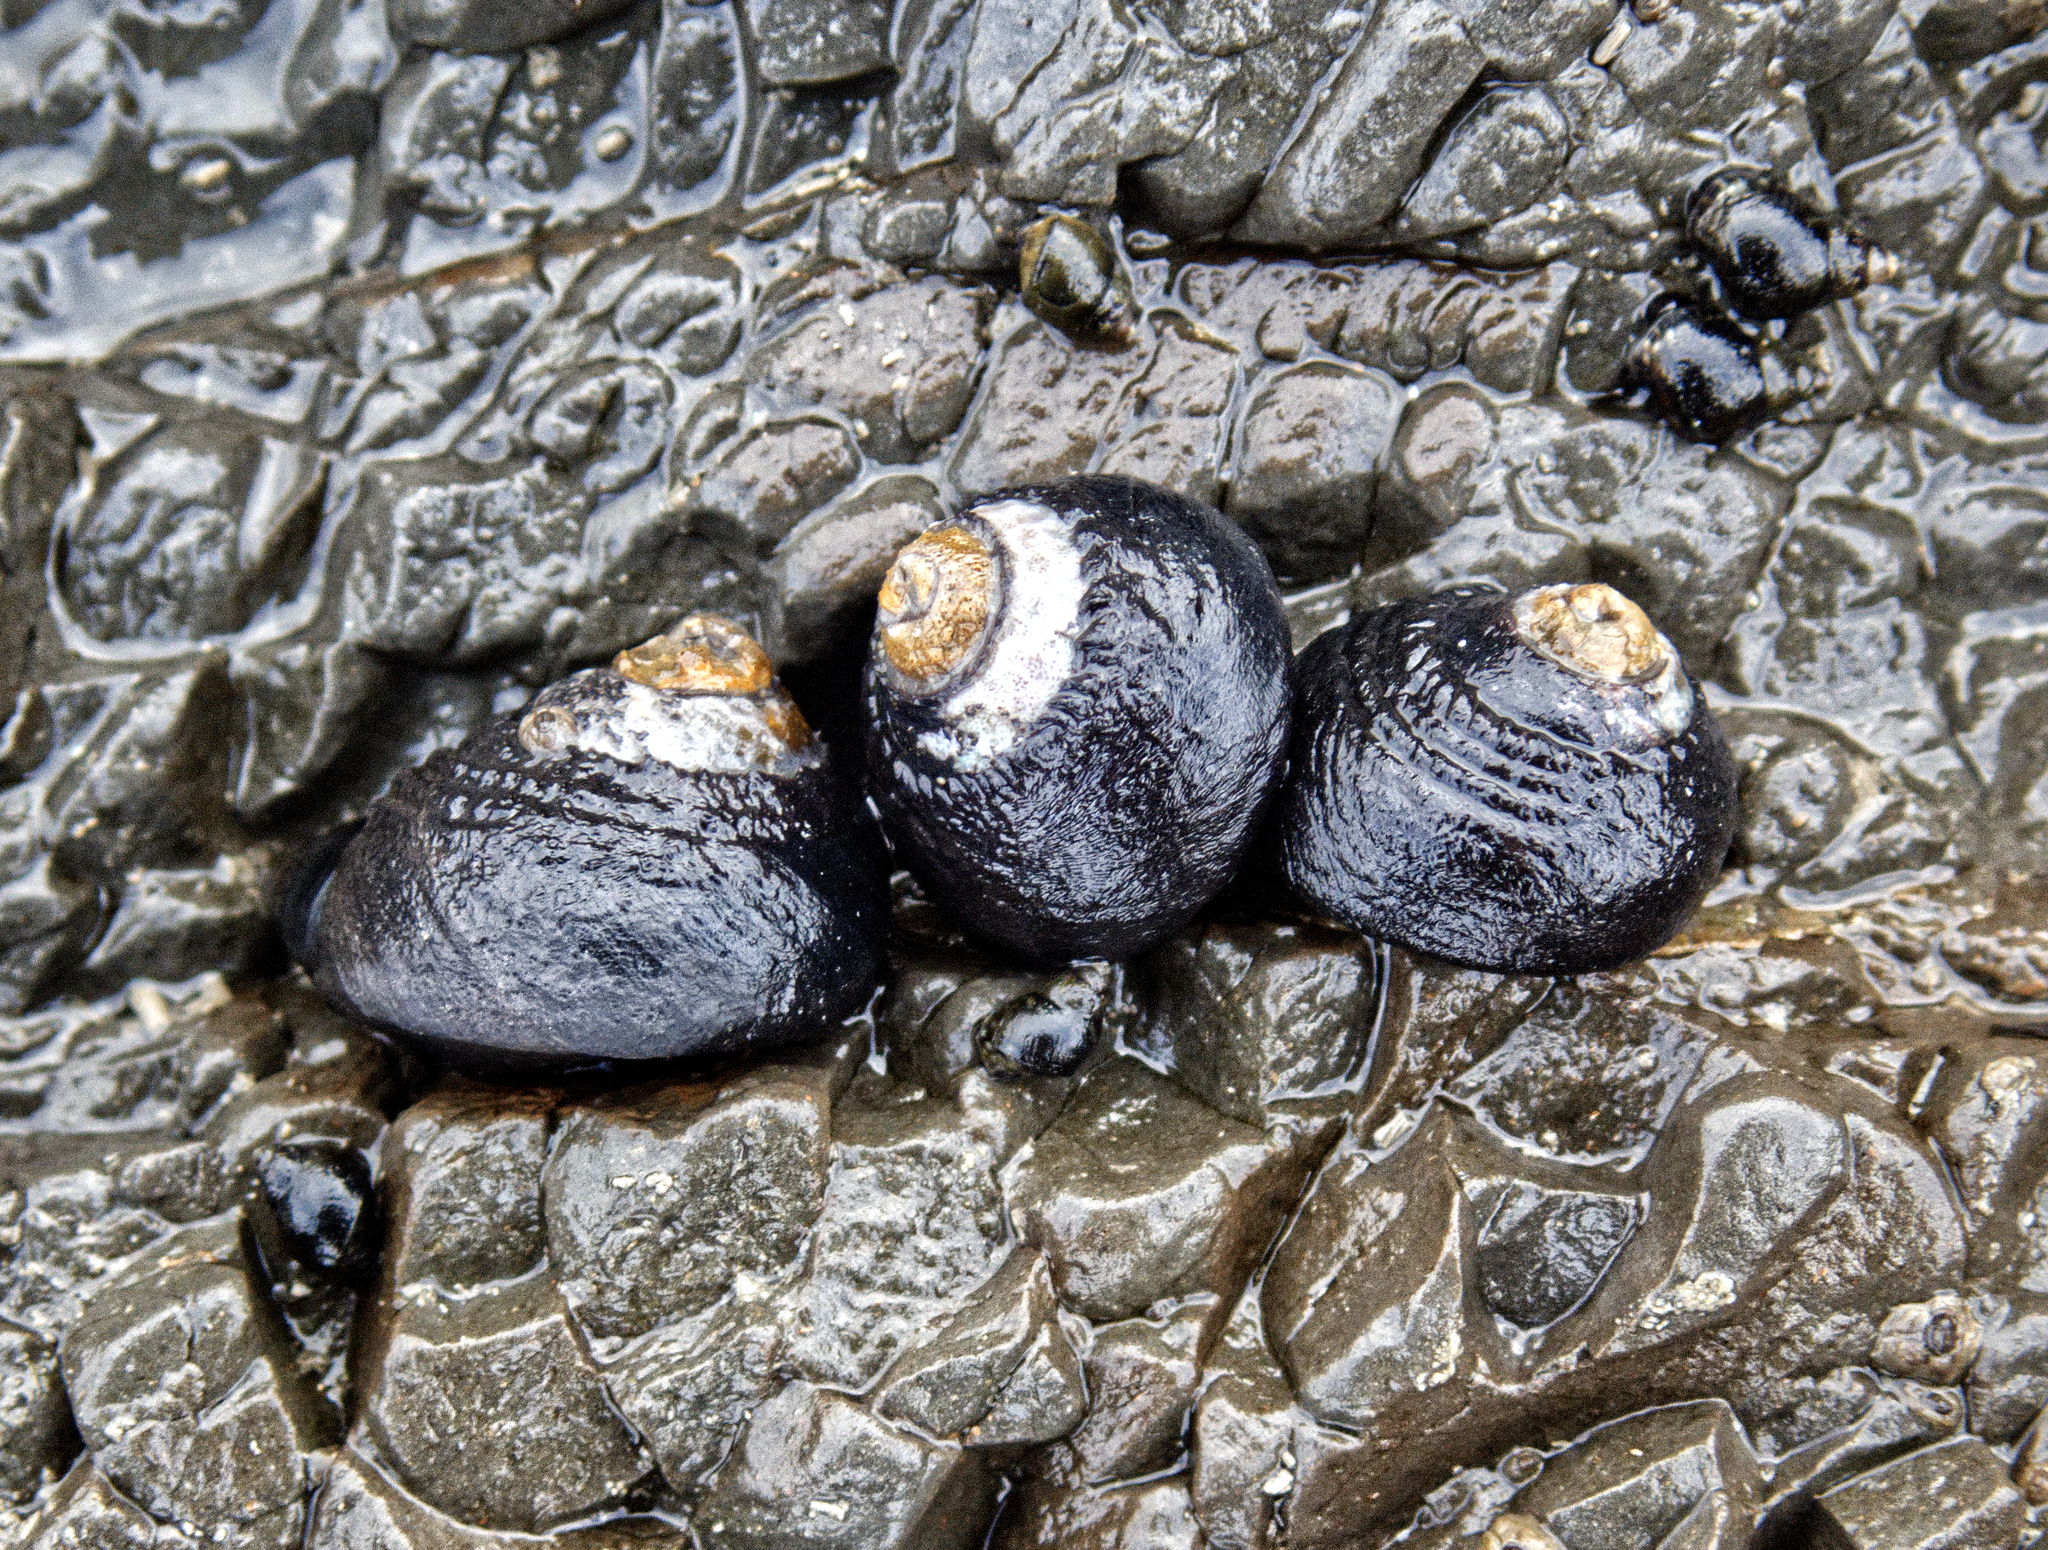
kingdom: Animalia
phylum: Mollusca
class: Gastropoda
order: Trochida
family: Tegulidae
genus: Tegula
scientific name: Tegula funebralis
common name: Black tegula
